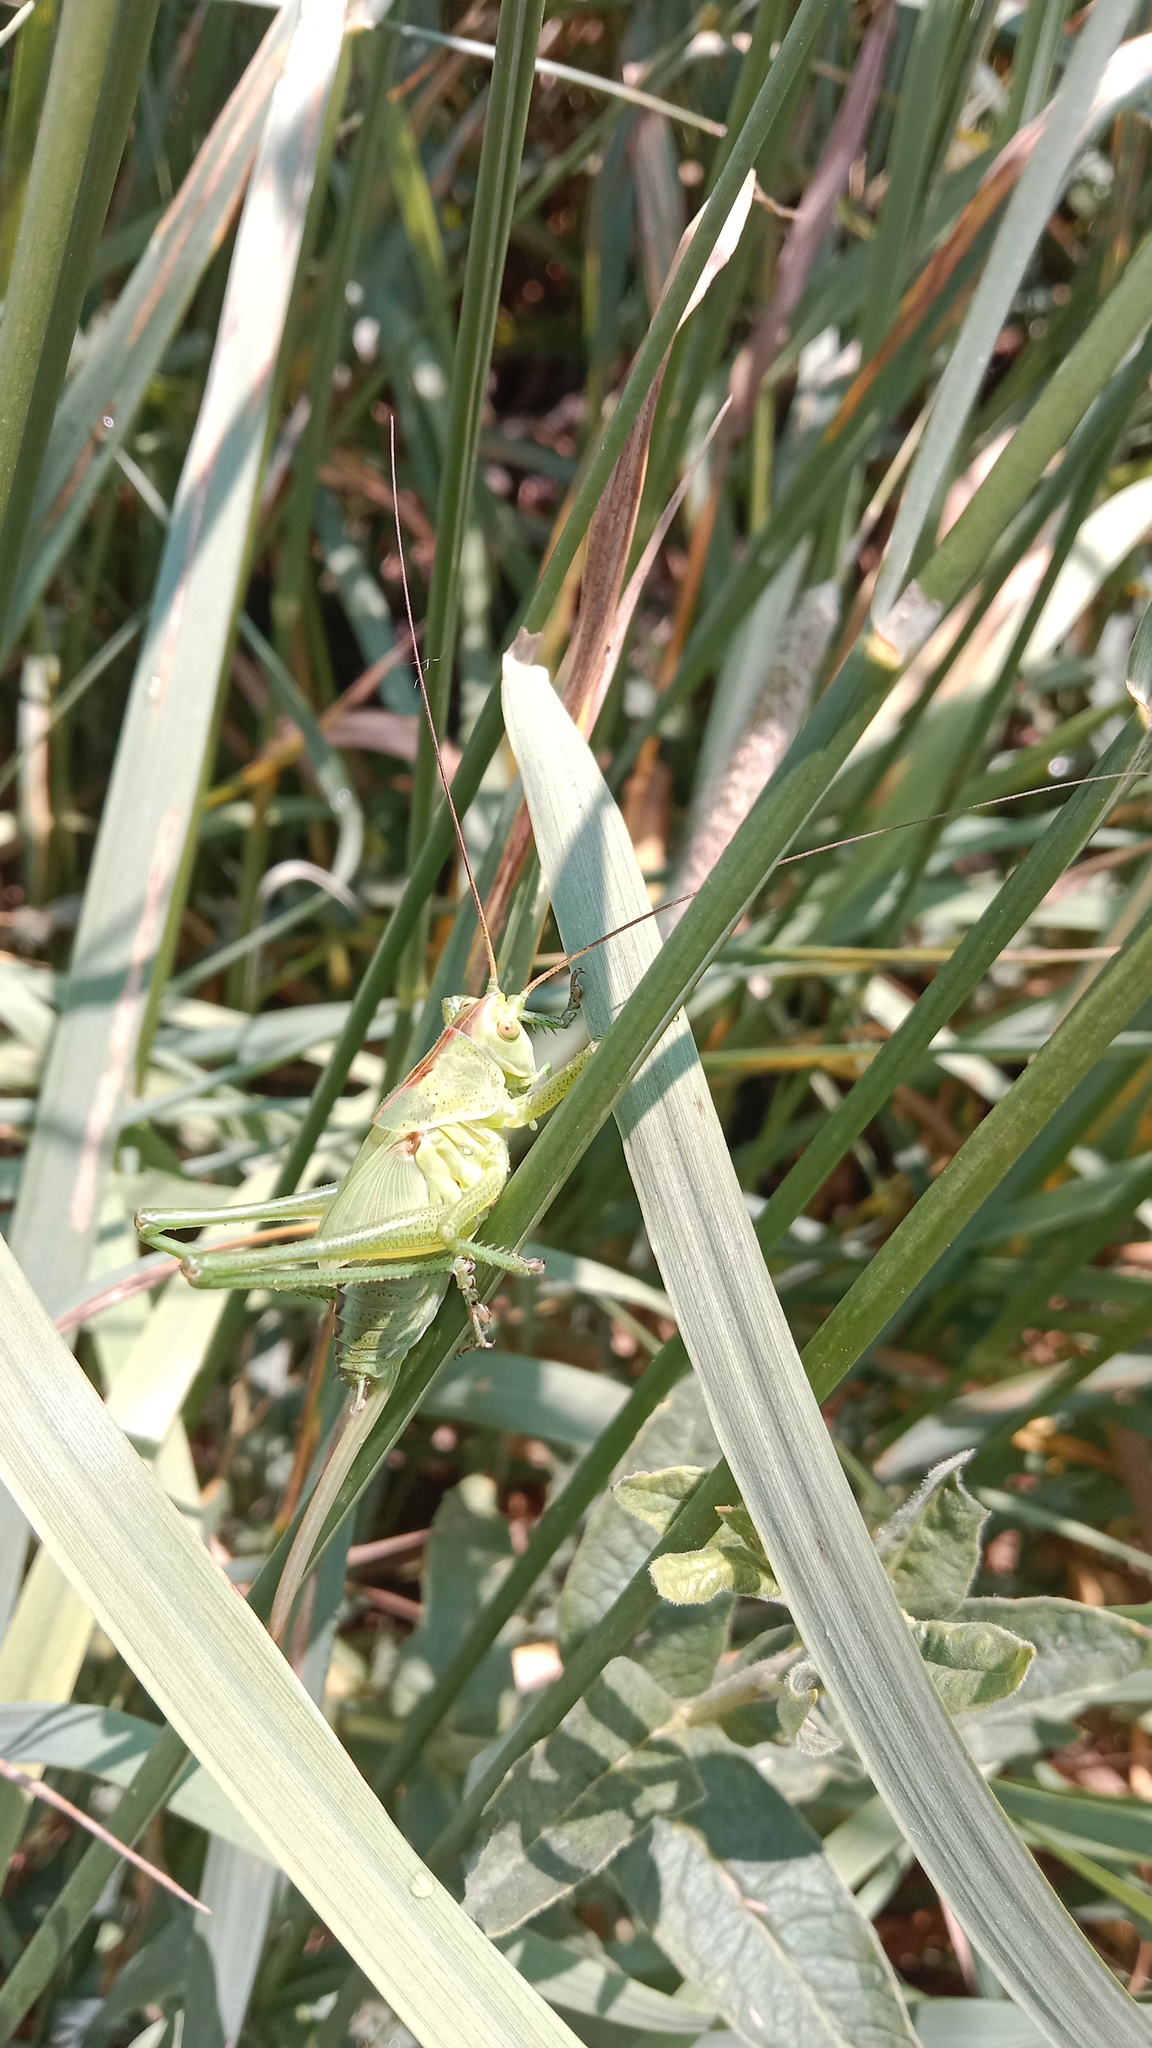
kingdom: Animalia
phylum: Arthropoda
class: Insecta
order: Orthoptera
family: Tettigoniidae
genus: Tettigonia
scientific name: Tettigonia viridissima
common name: Great green bush-cricket
